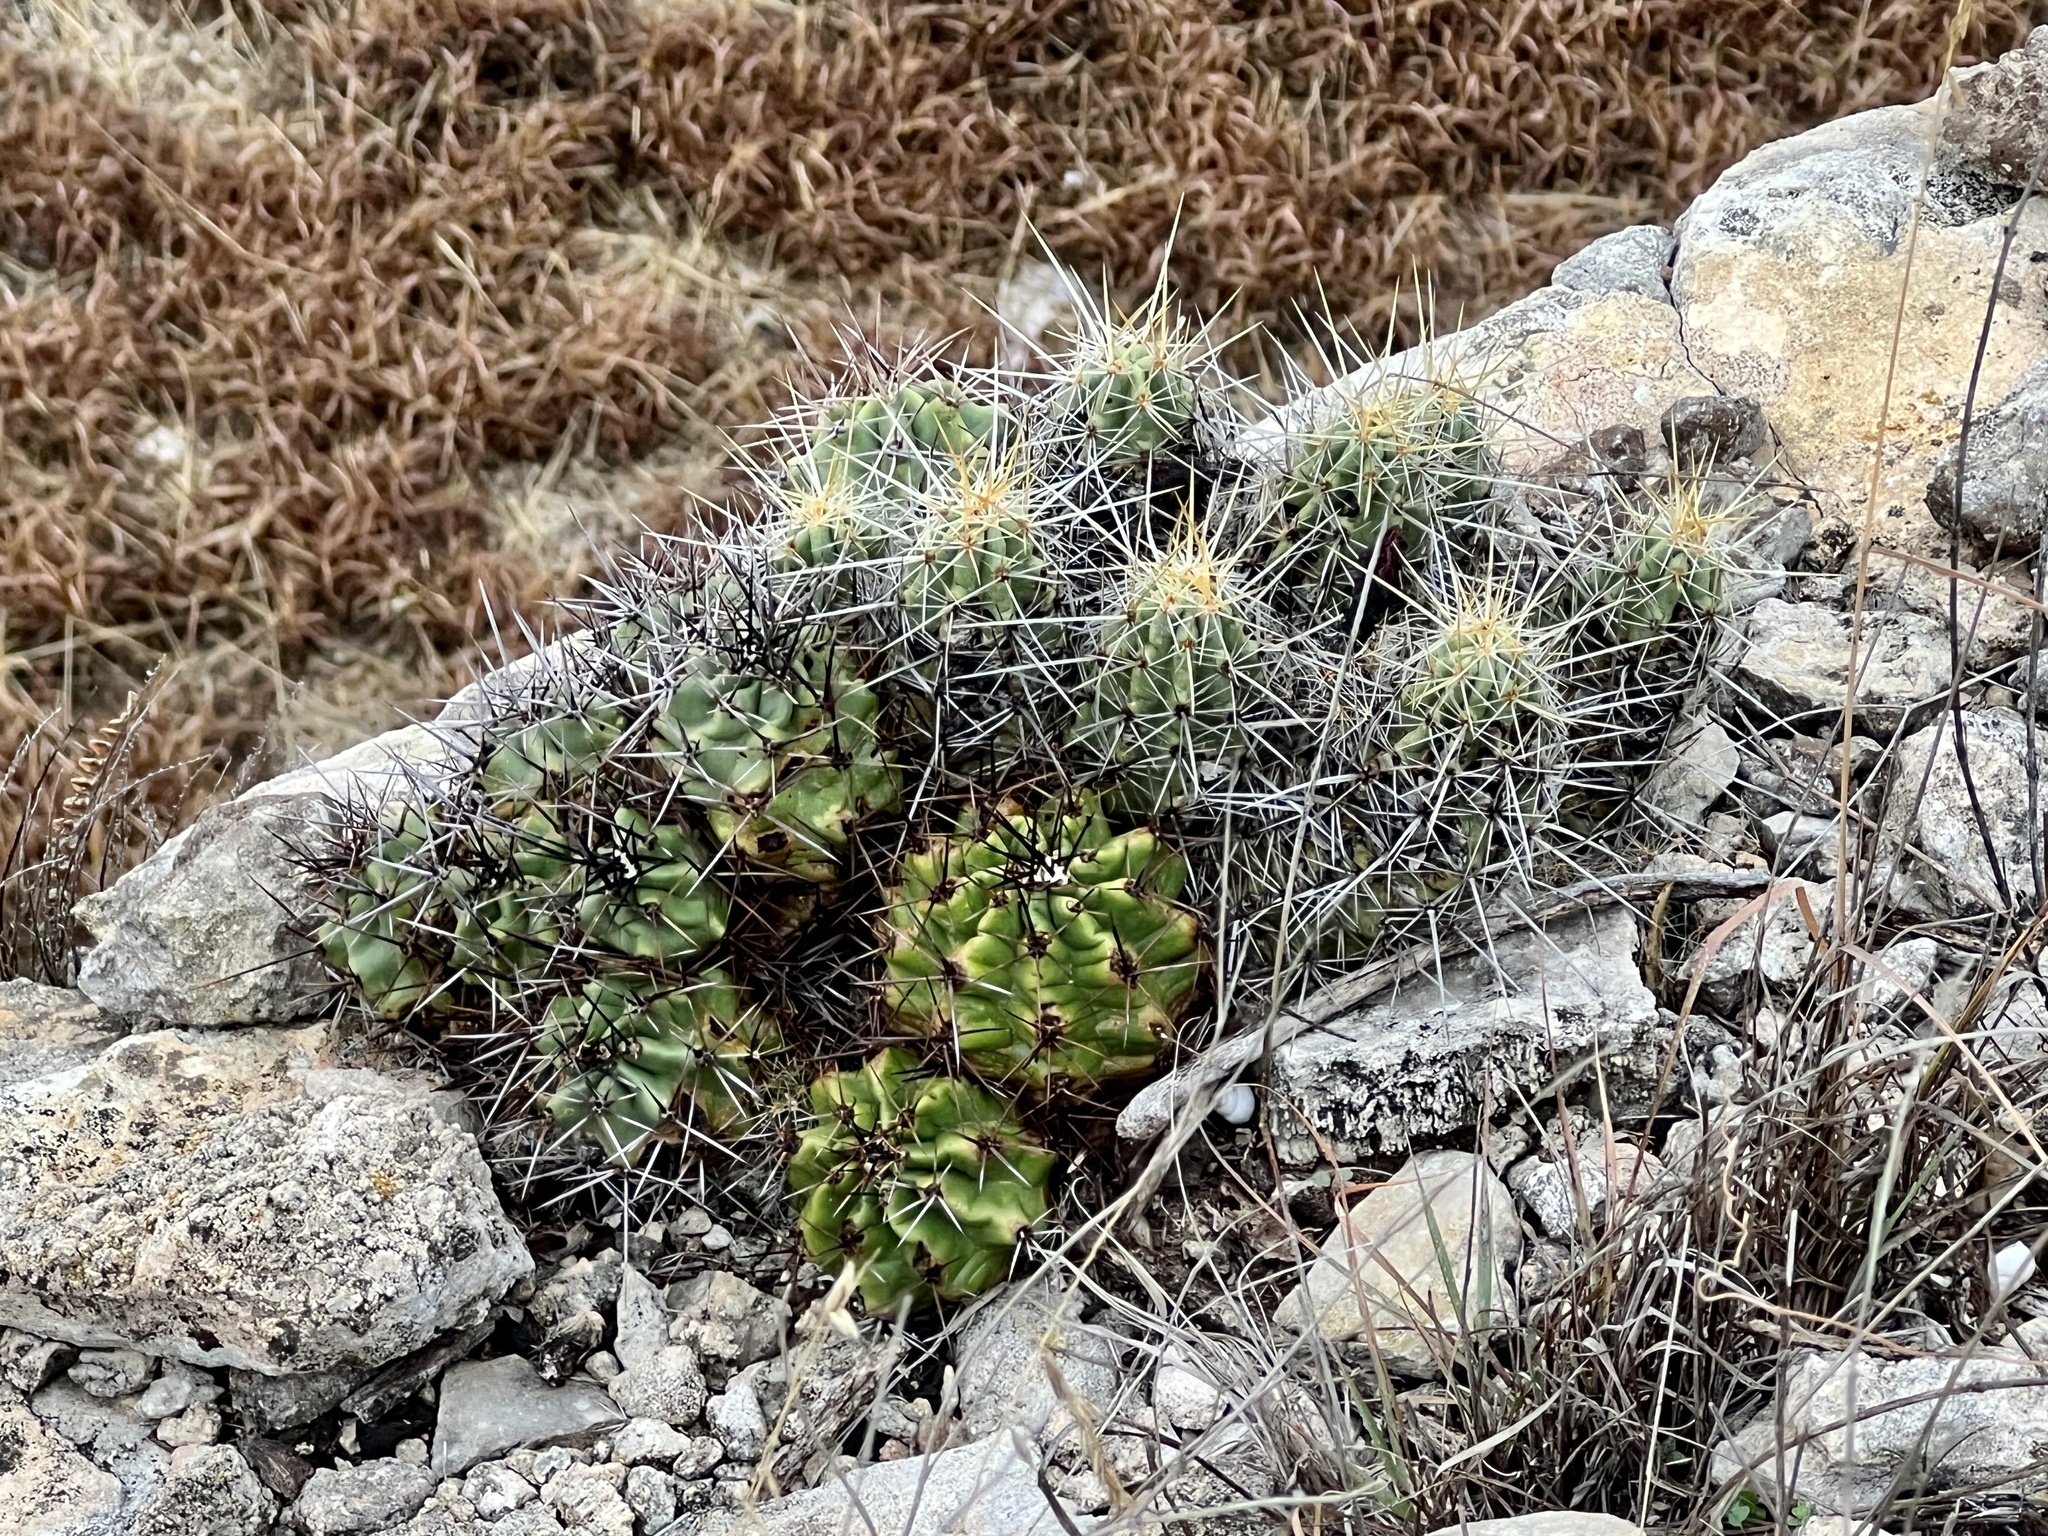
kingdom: Plantae
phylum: Tracheophyta
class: Magnoliopsida
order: Caryophyllales
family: Cactaceae
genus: Echinocereus
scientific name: Echinocereus enneacanthus
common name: Pitaya
